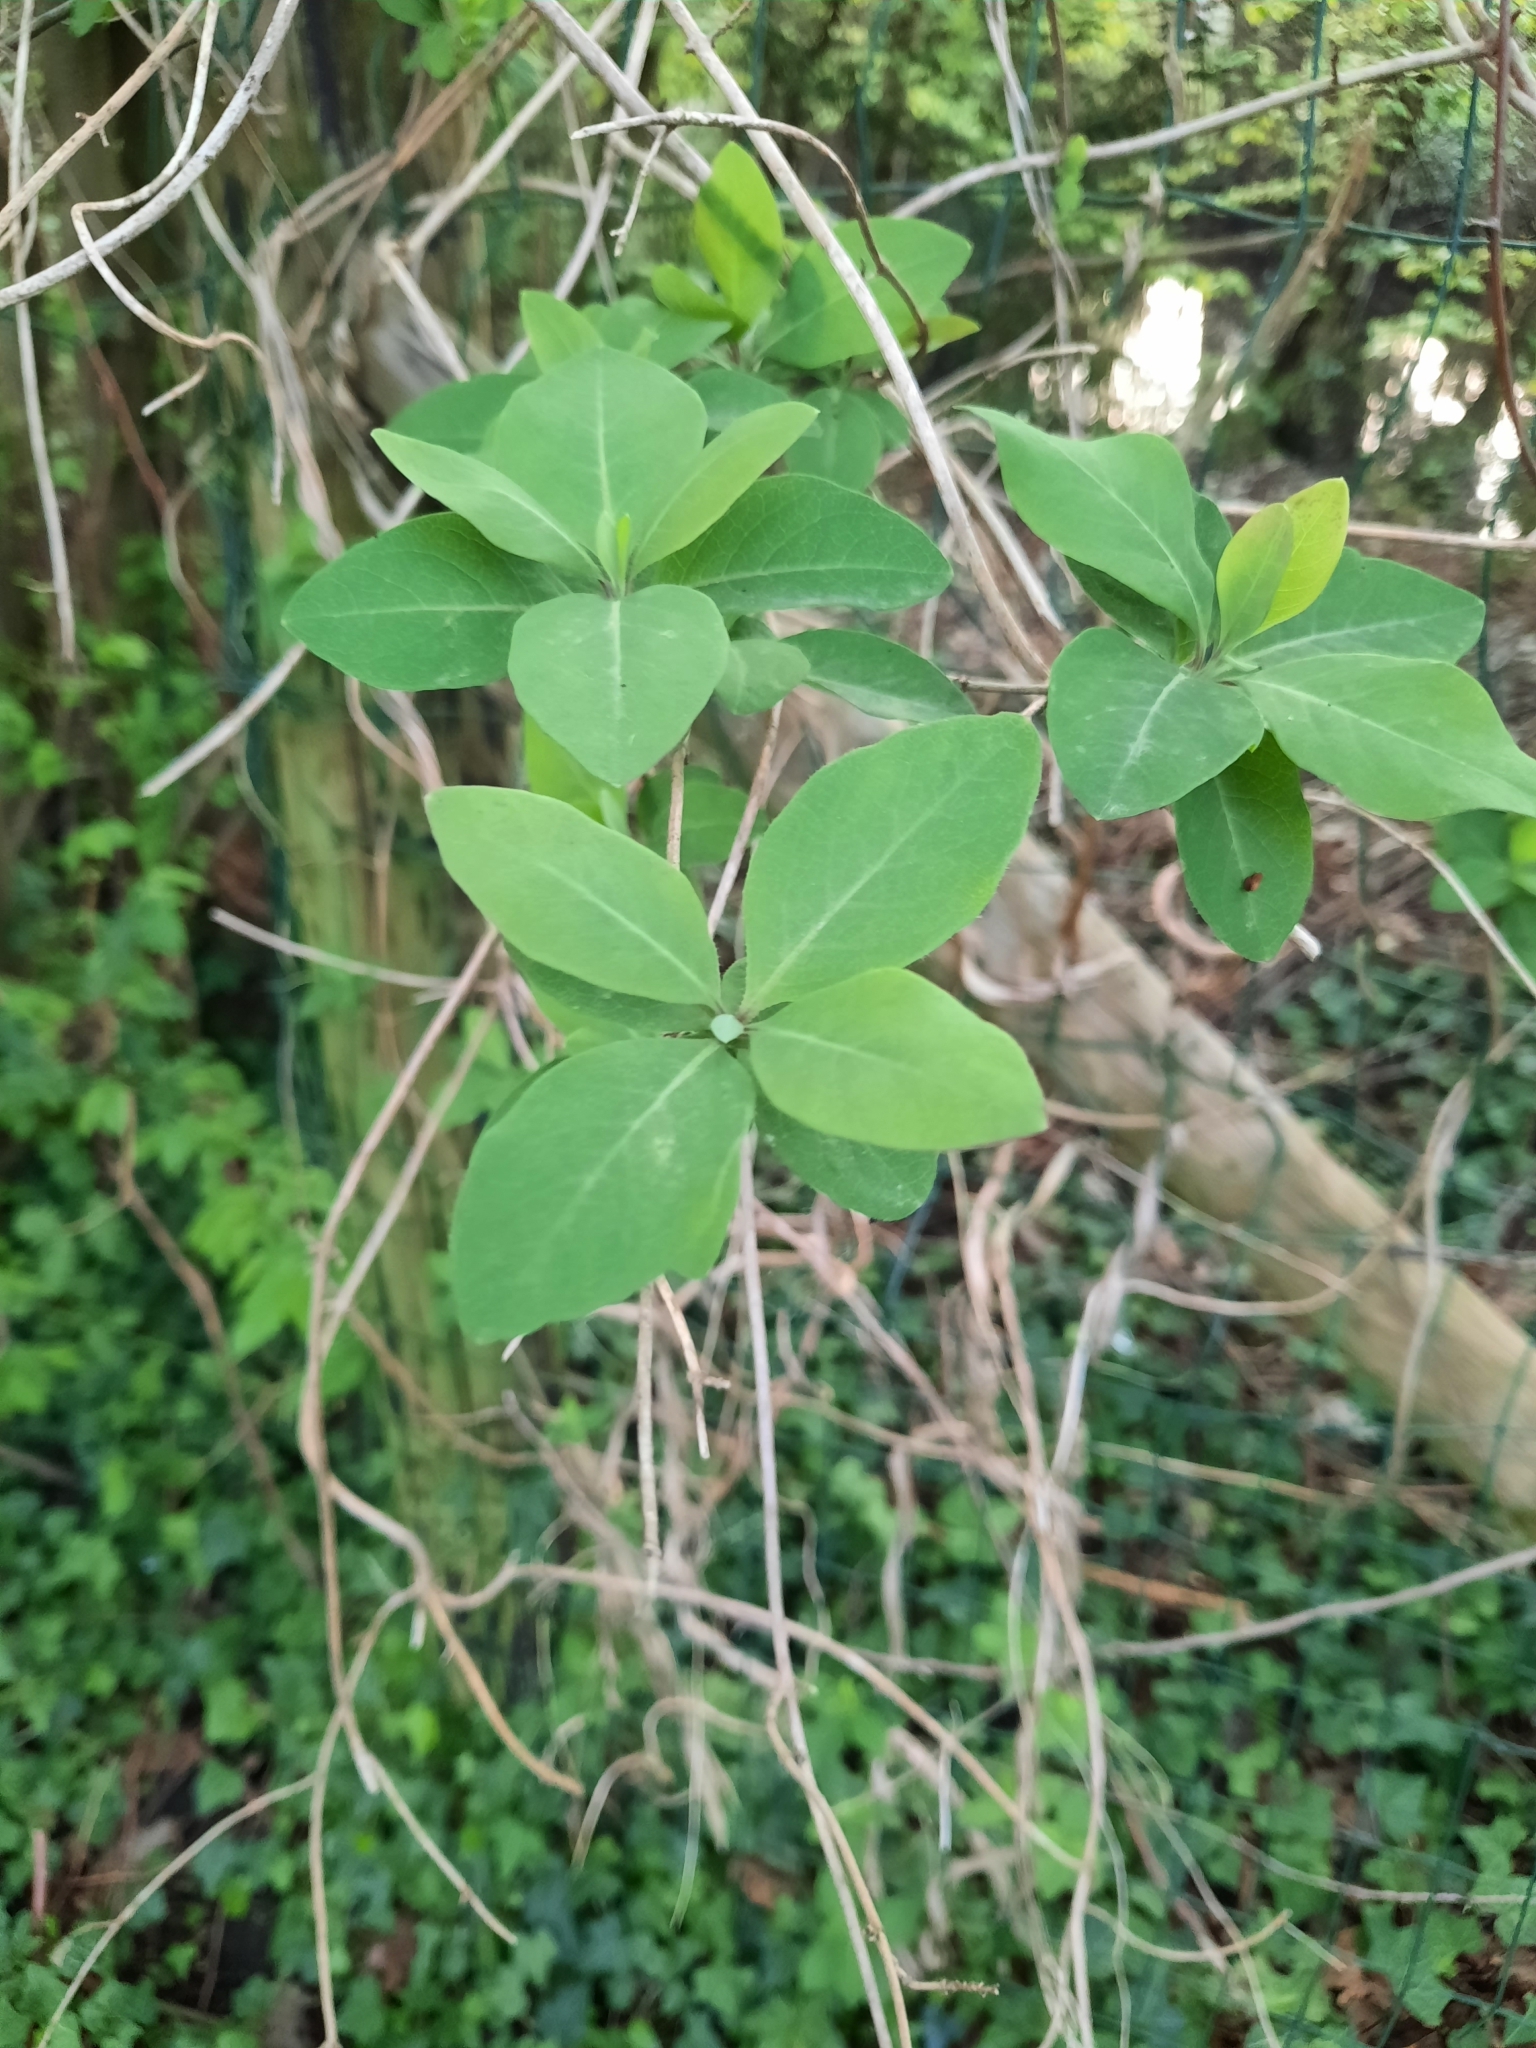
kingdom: Plantae
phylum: Tracheophyta
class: Magnoliopsida
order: Dipsacales
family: Caprifoliaceae
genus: Lonicera
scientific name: Lonicera periclymenum
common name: European honeysuckle
